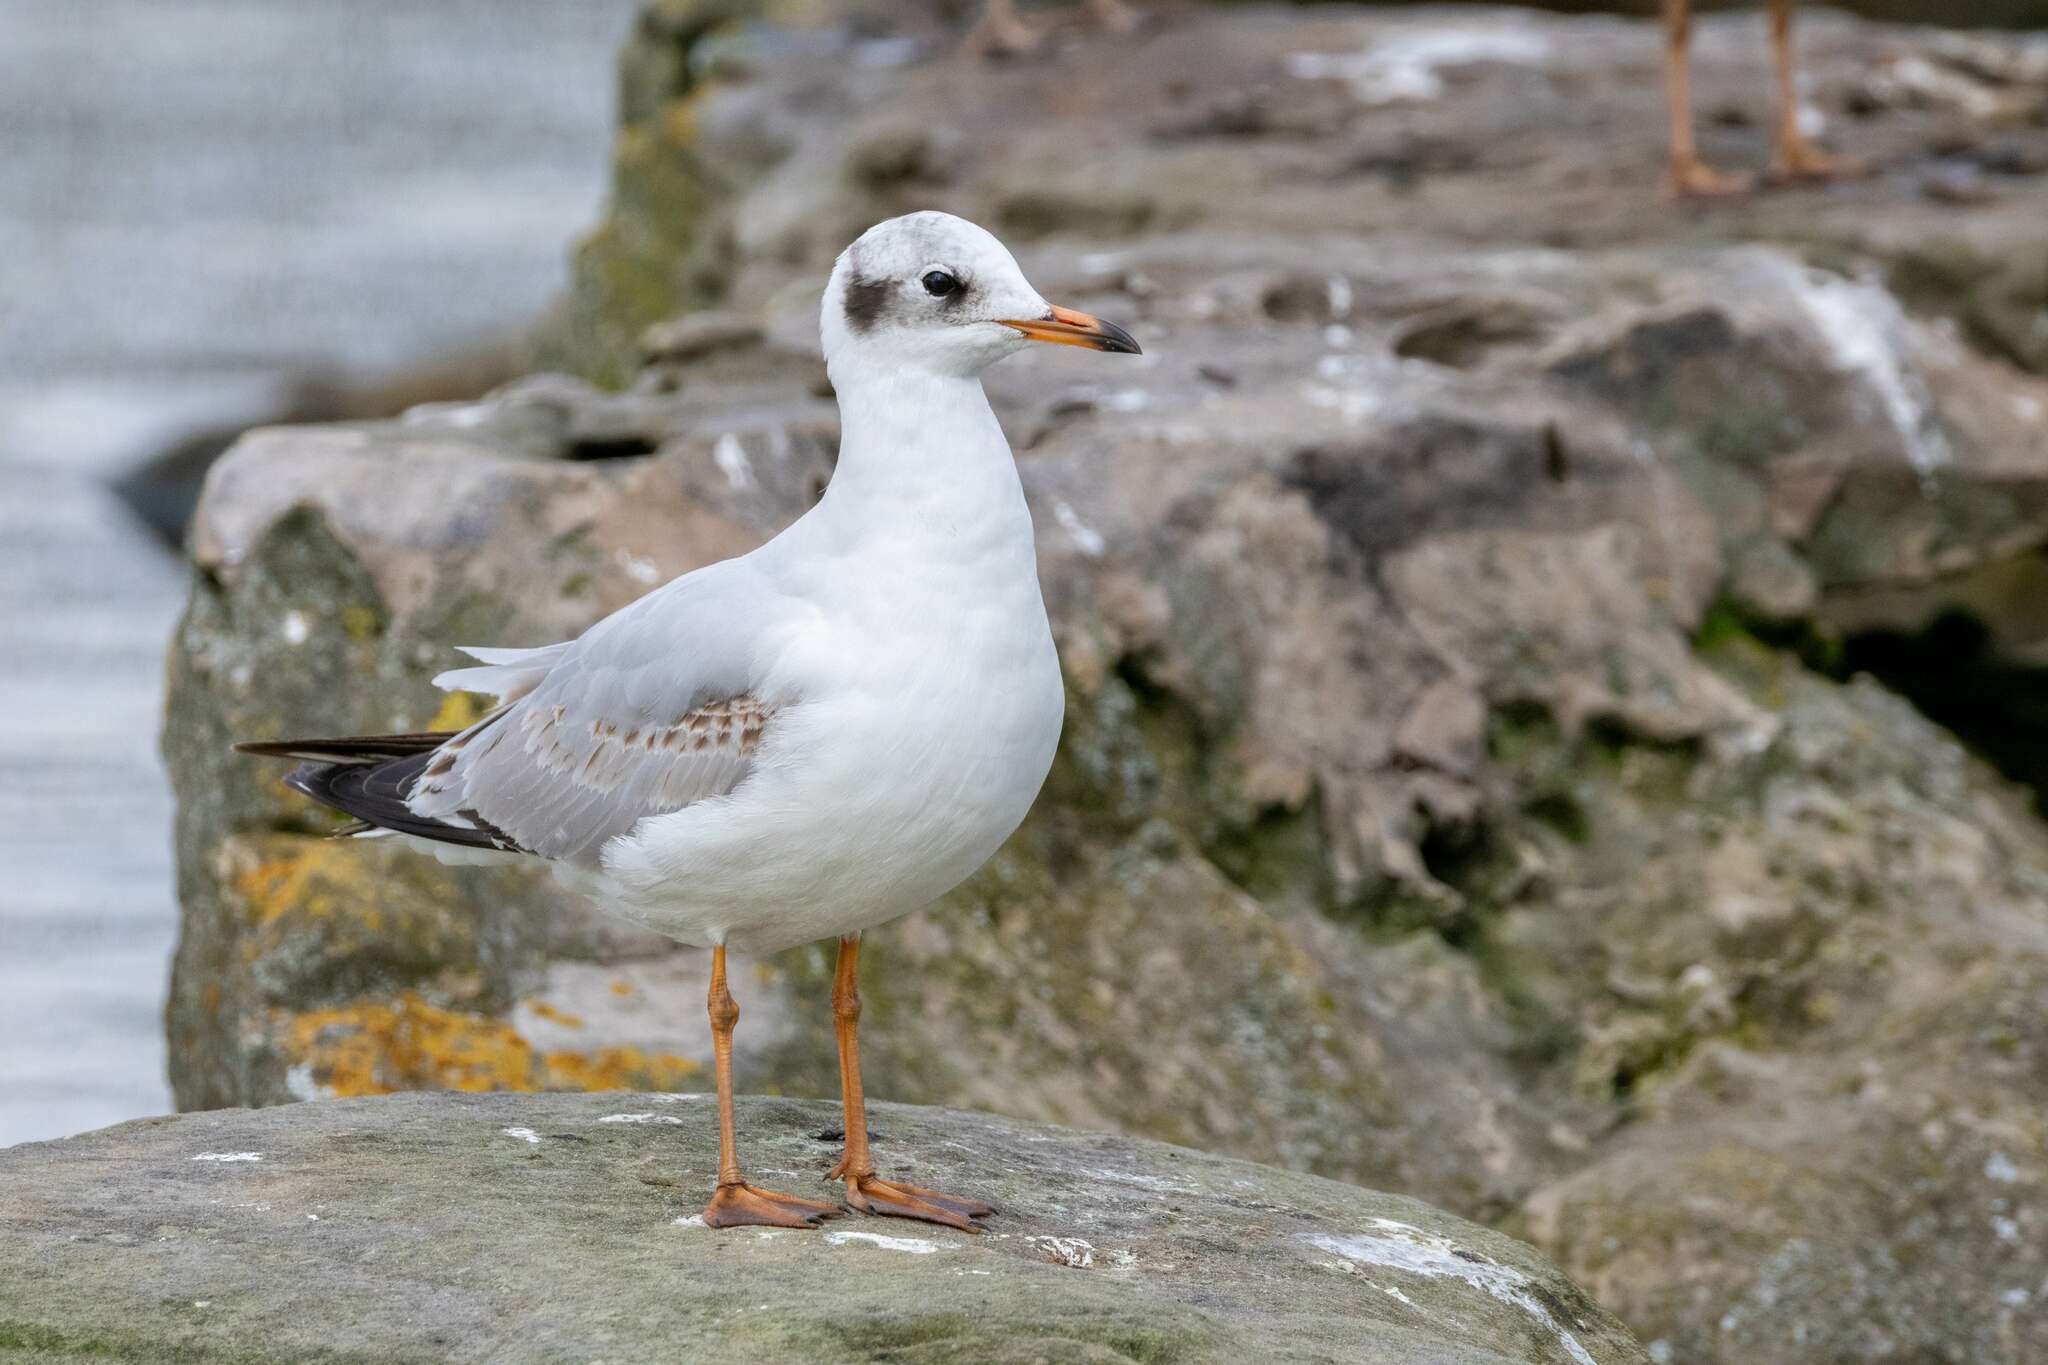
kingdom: Animalia
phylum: Chordata
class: Aves
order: Charadriiformes
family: Laridae
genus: Chroicocephalus
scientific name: Chroicocephalus ridibundus
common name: Black-headed gull
